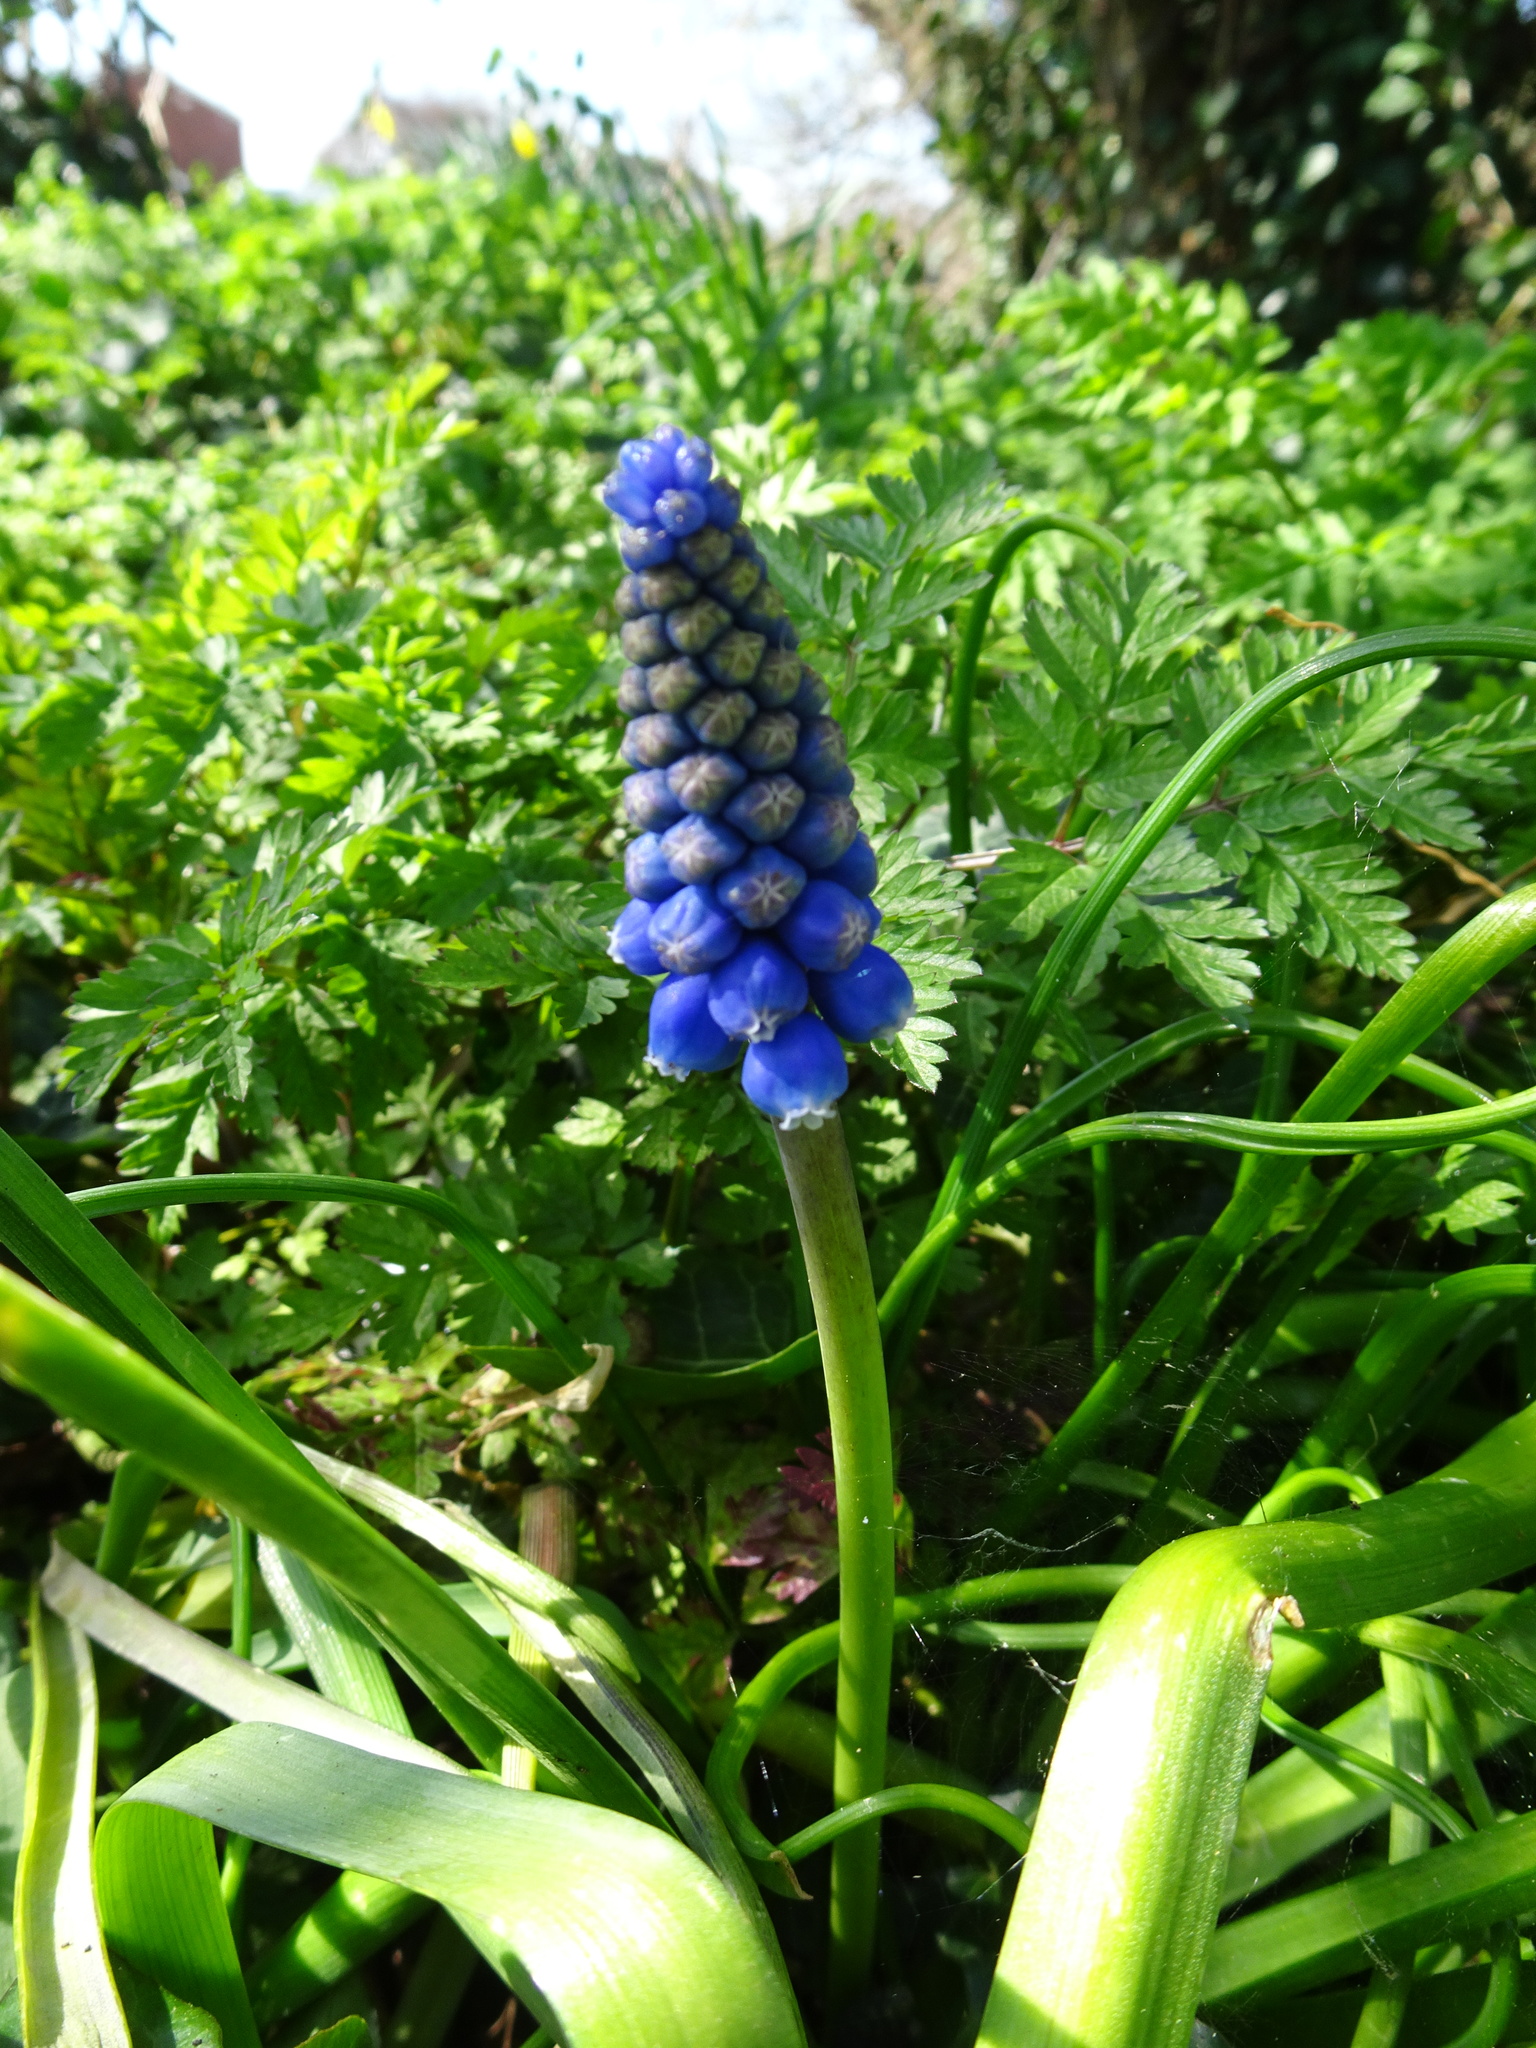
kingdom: Plantae
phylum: Tracheophyta
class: Liliopsida
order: Asparagales
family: Asparagaceae
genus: Muscari
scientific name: Muscari armeniacum
